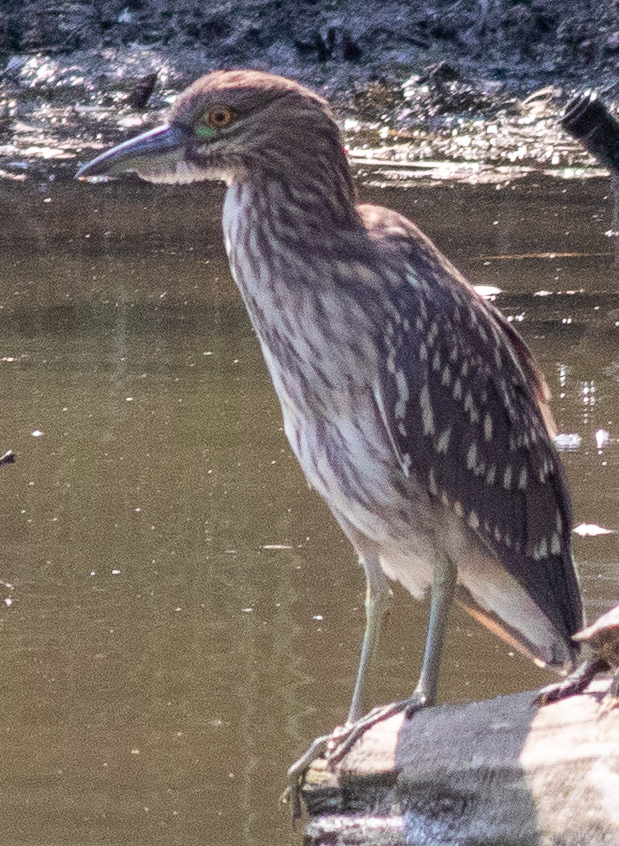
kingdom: Animalia
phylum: Chordata
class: Aves
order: Pelecaniformes
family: Ardeidae
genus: Nycticorax
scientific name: Nycticorax nycticorax
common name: Black-crowned night heron
